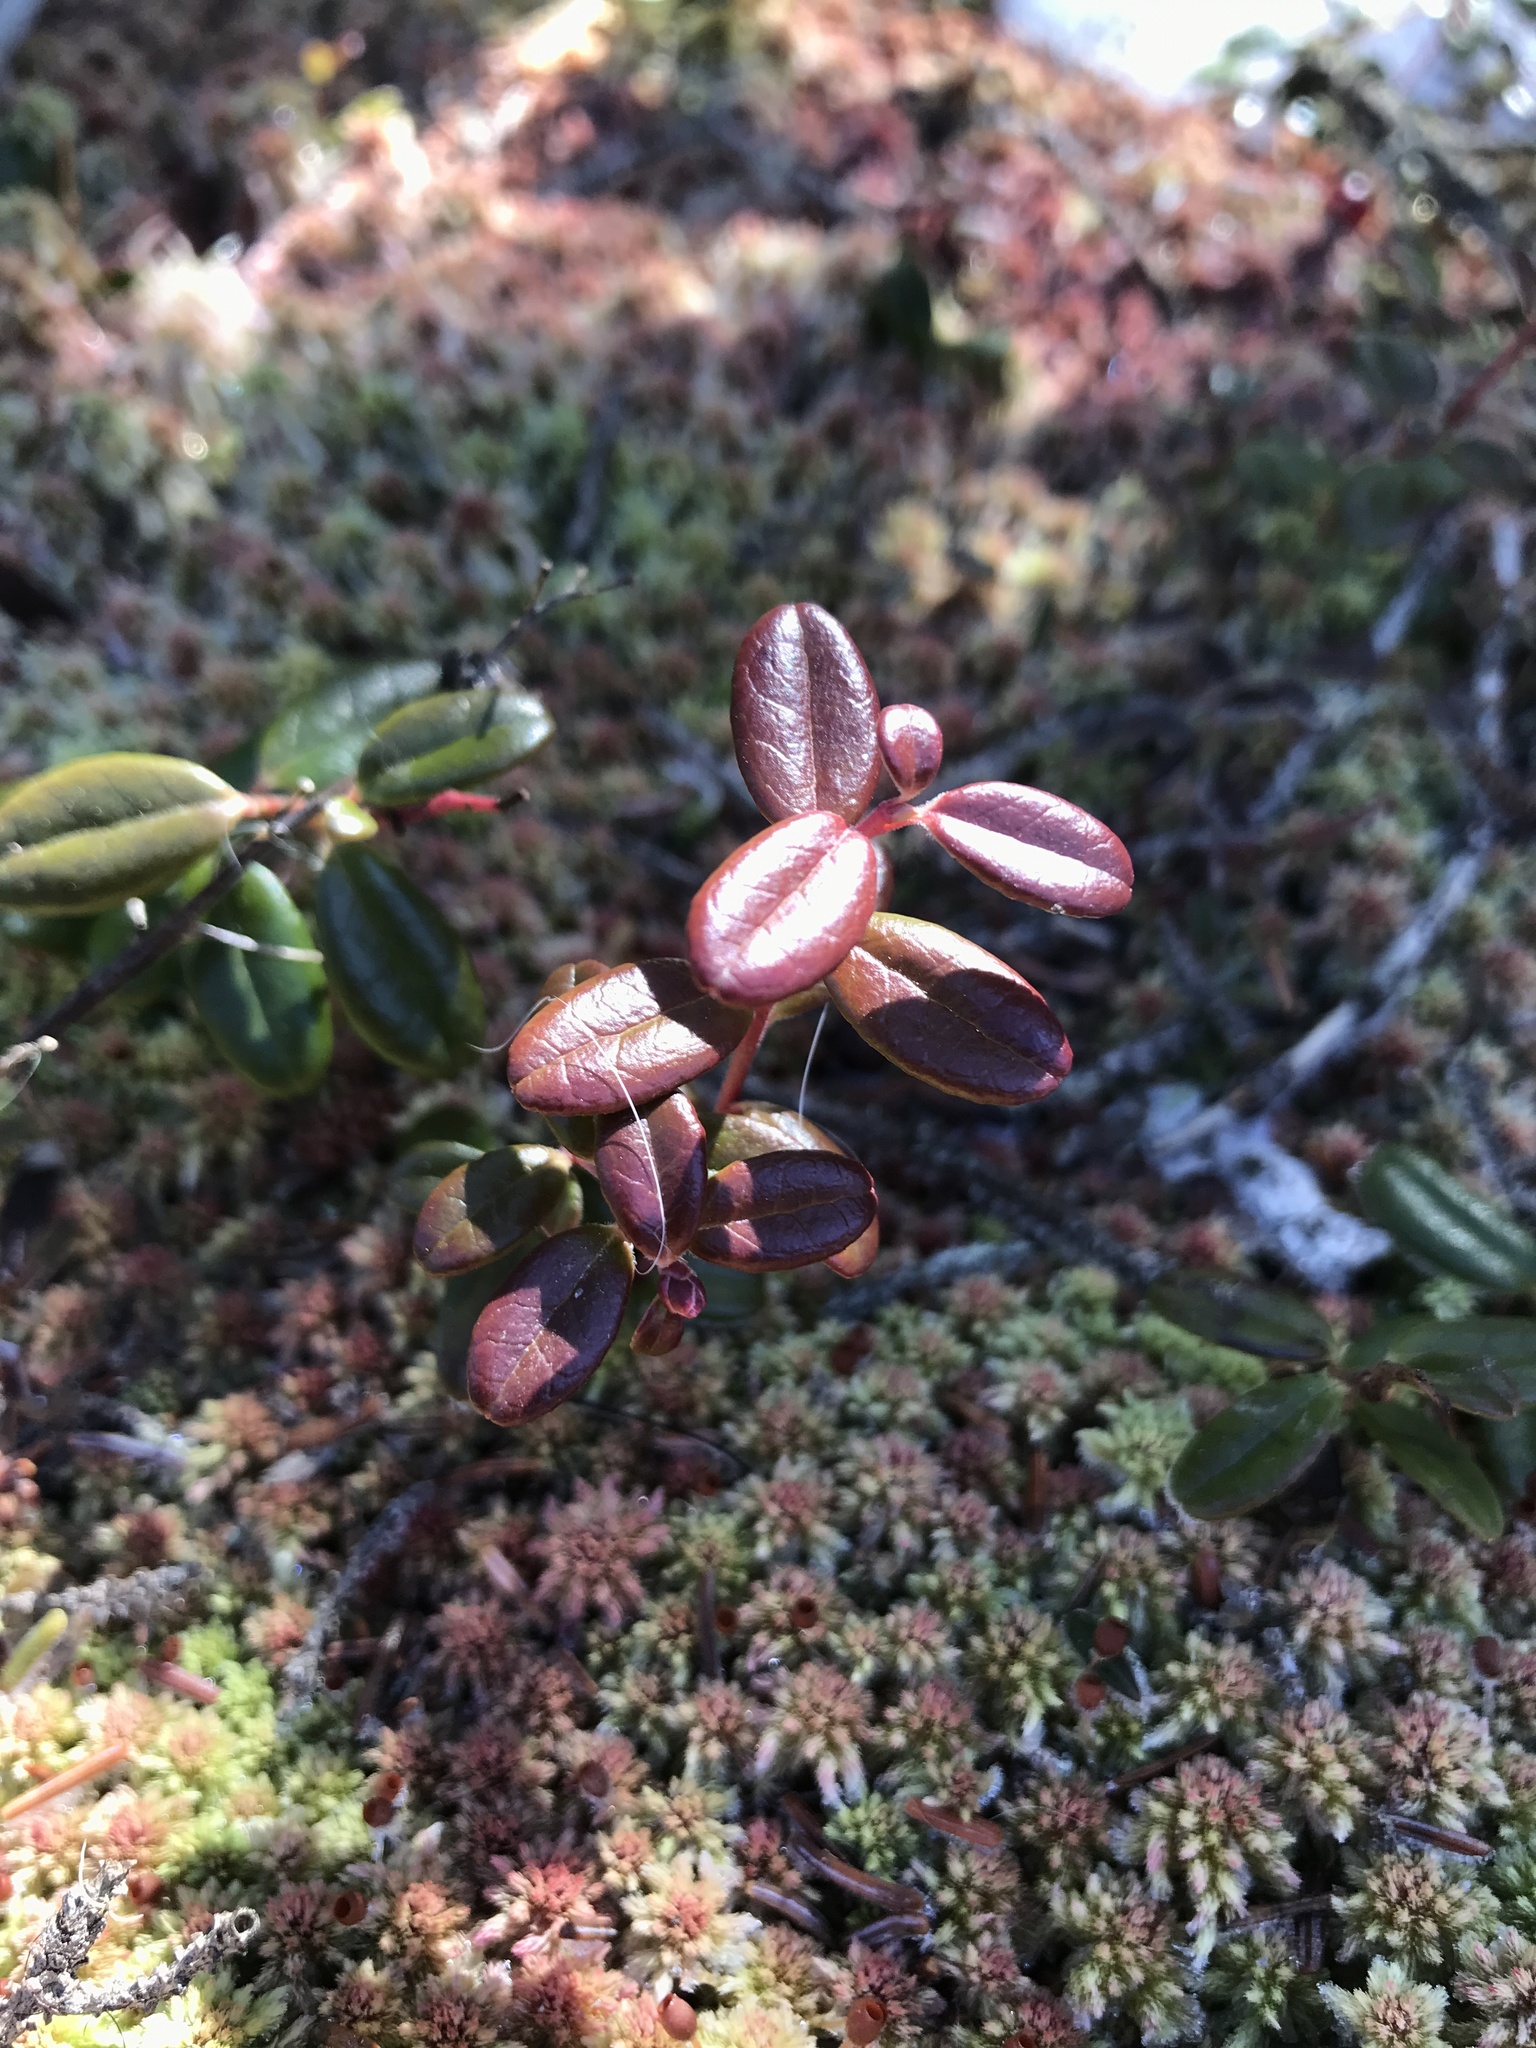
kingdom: Plantae
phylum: Tracheophyta
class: Magnoliopsida
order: Ericales
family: Ericaceae
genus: Vaccinium
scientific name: Vaccinium vitis-idaea
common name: Cowberry
